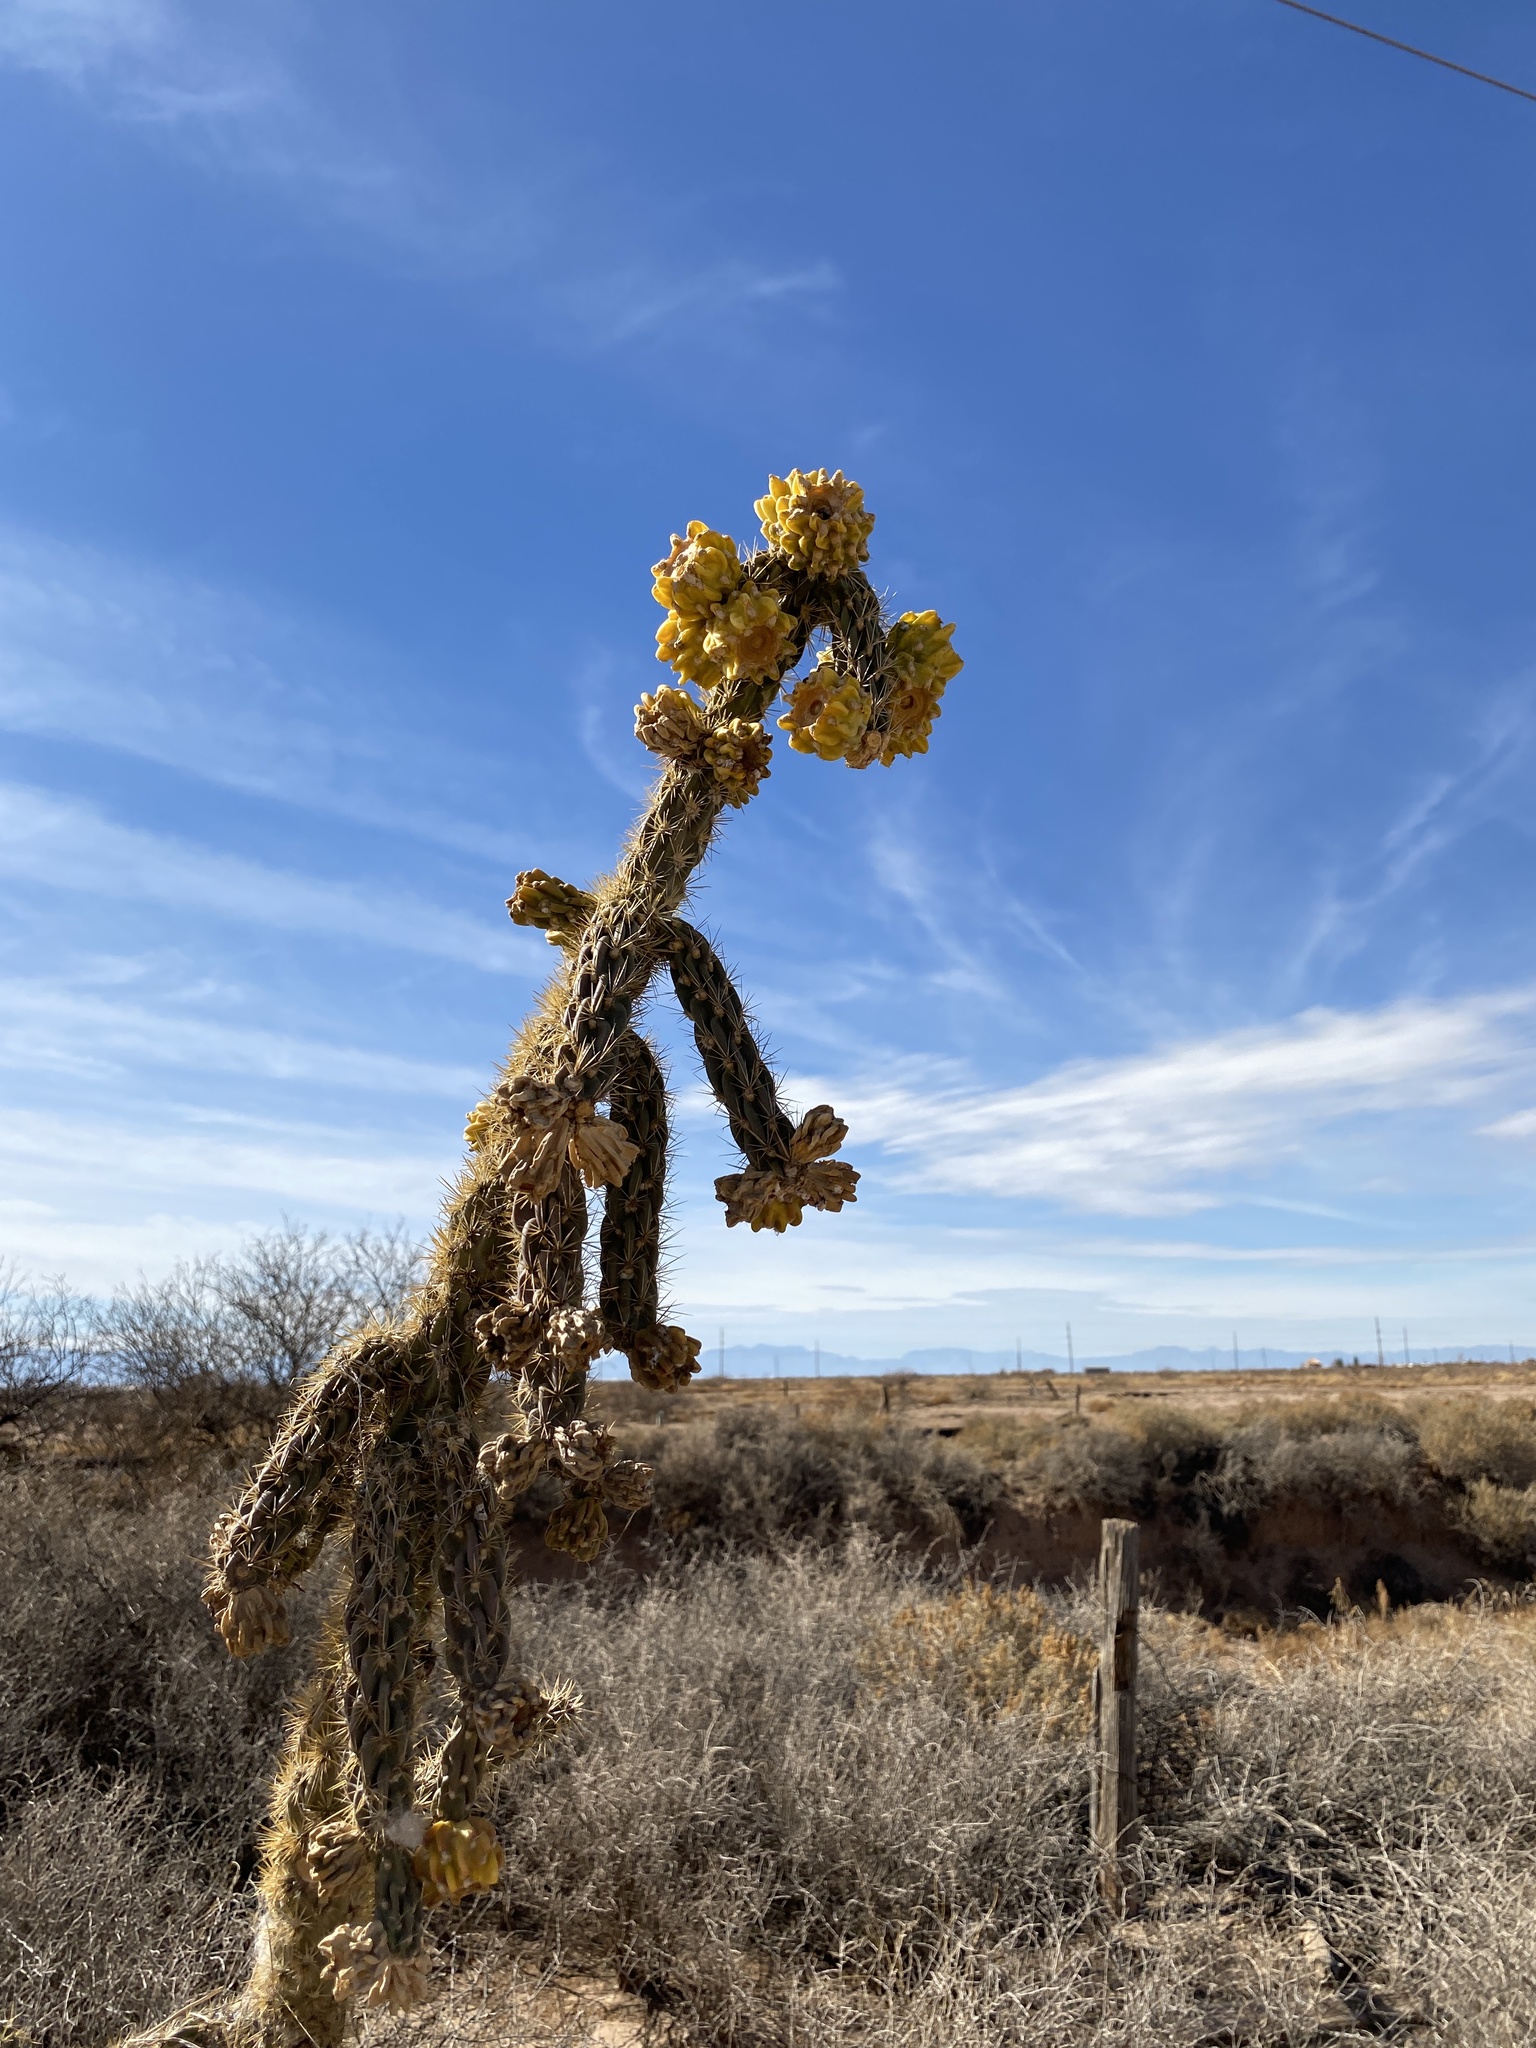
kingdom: Plantae
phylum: Tracheophyta
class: Magnoliopsida
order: Caryophyllales
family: Cactaceae
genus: Cylindropuntia
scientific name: Cylindropuntia imbricata
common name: Candelabrum cactus
